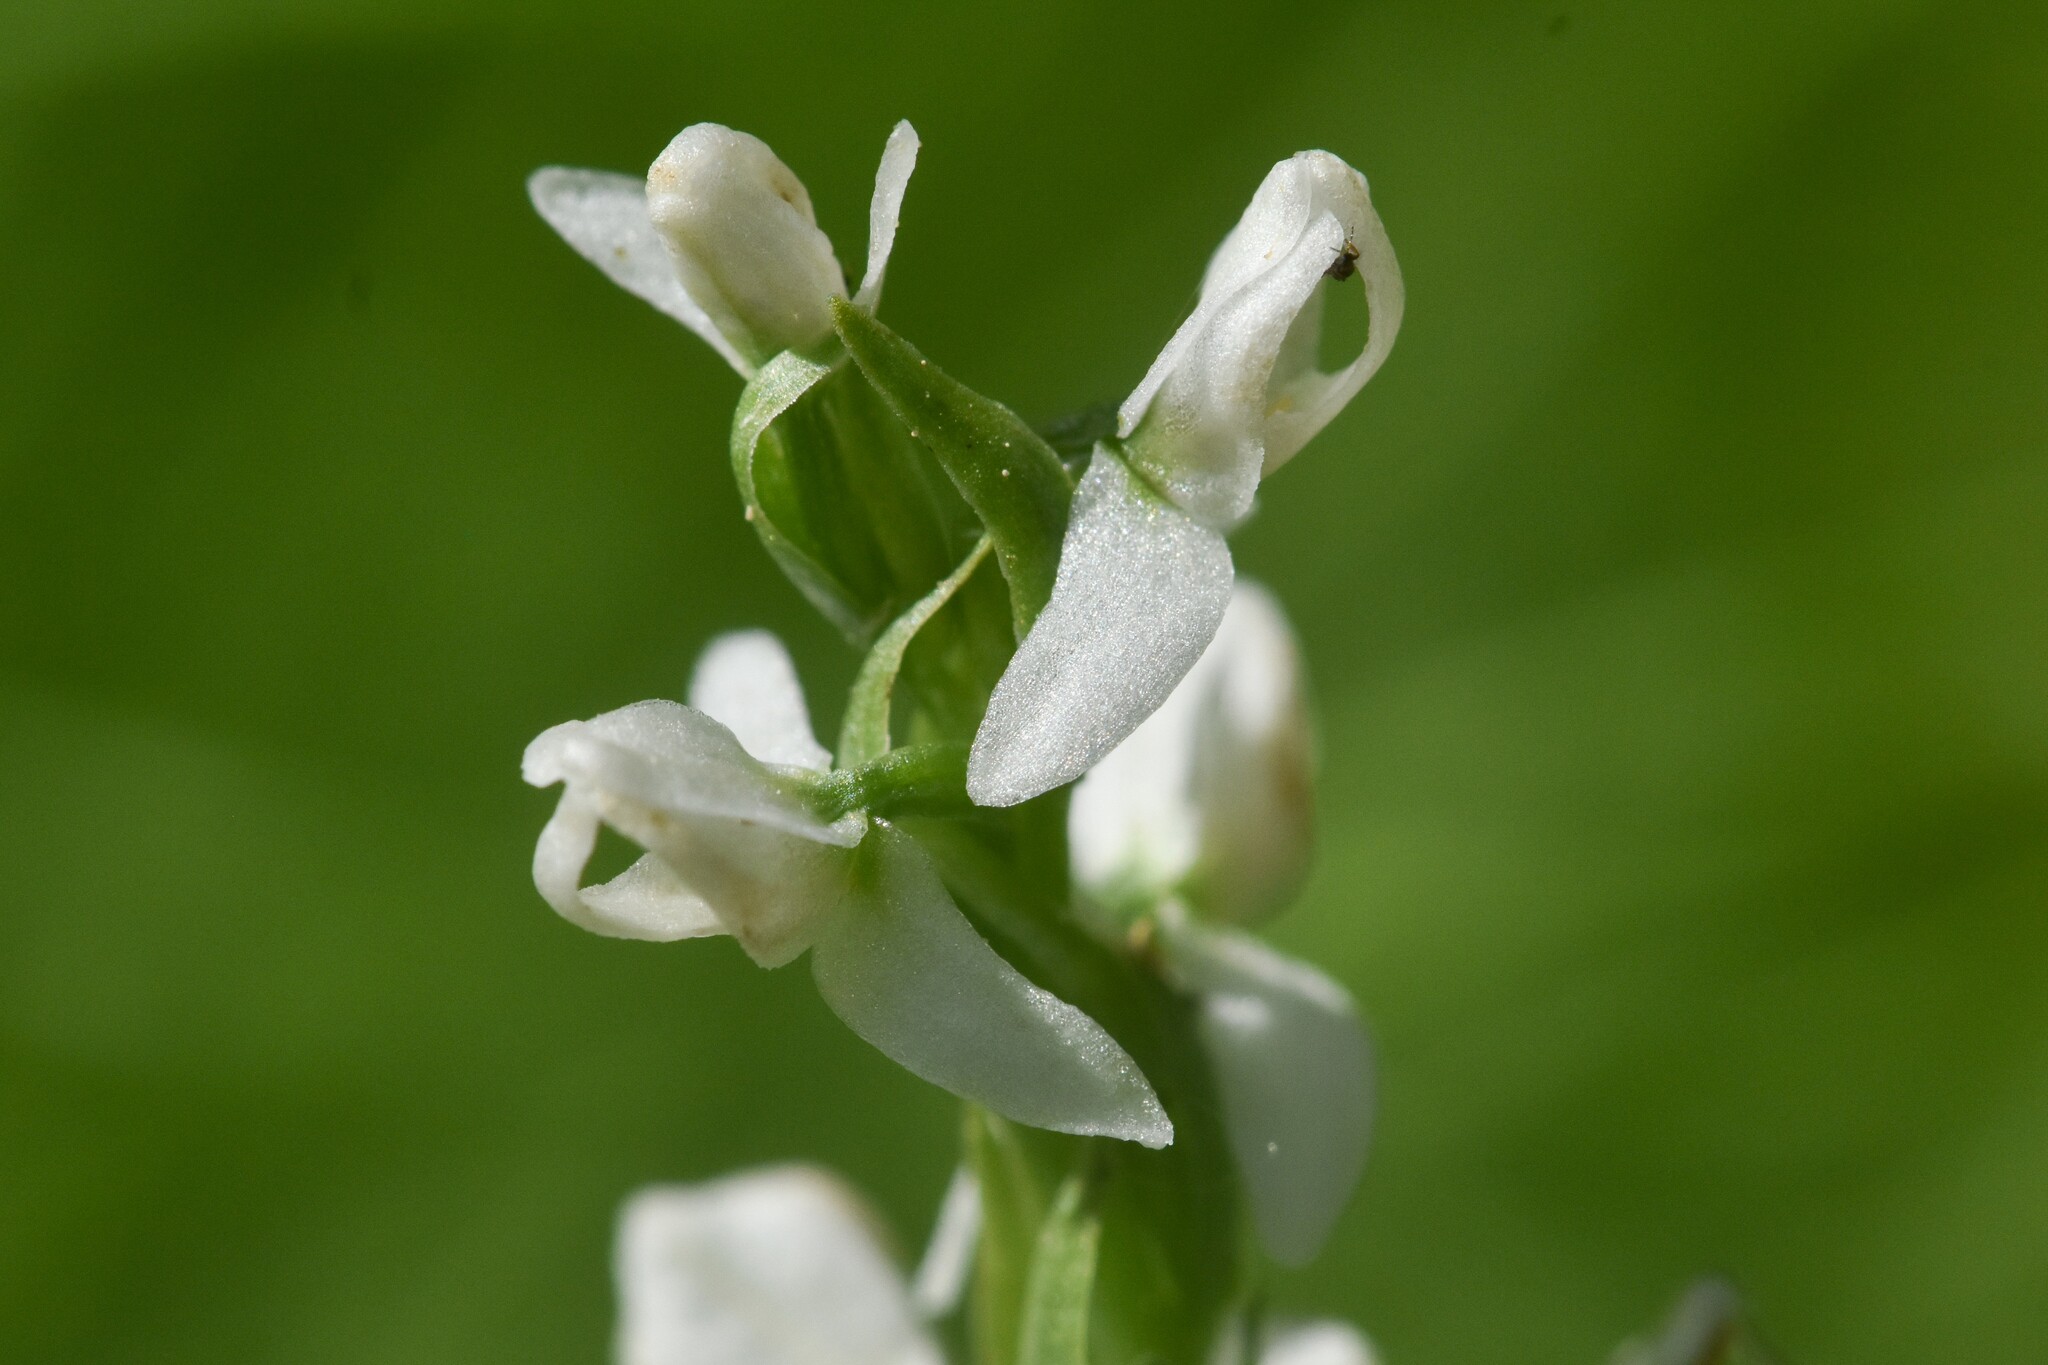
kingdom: Plantae
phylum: Tracheophyta
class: Liliopsida
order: Asparagales
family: Orchidaceae
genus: Platanthera
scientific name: Platanthera dilatata
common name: Bog candles
